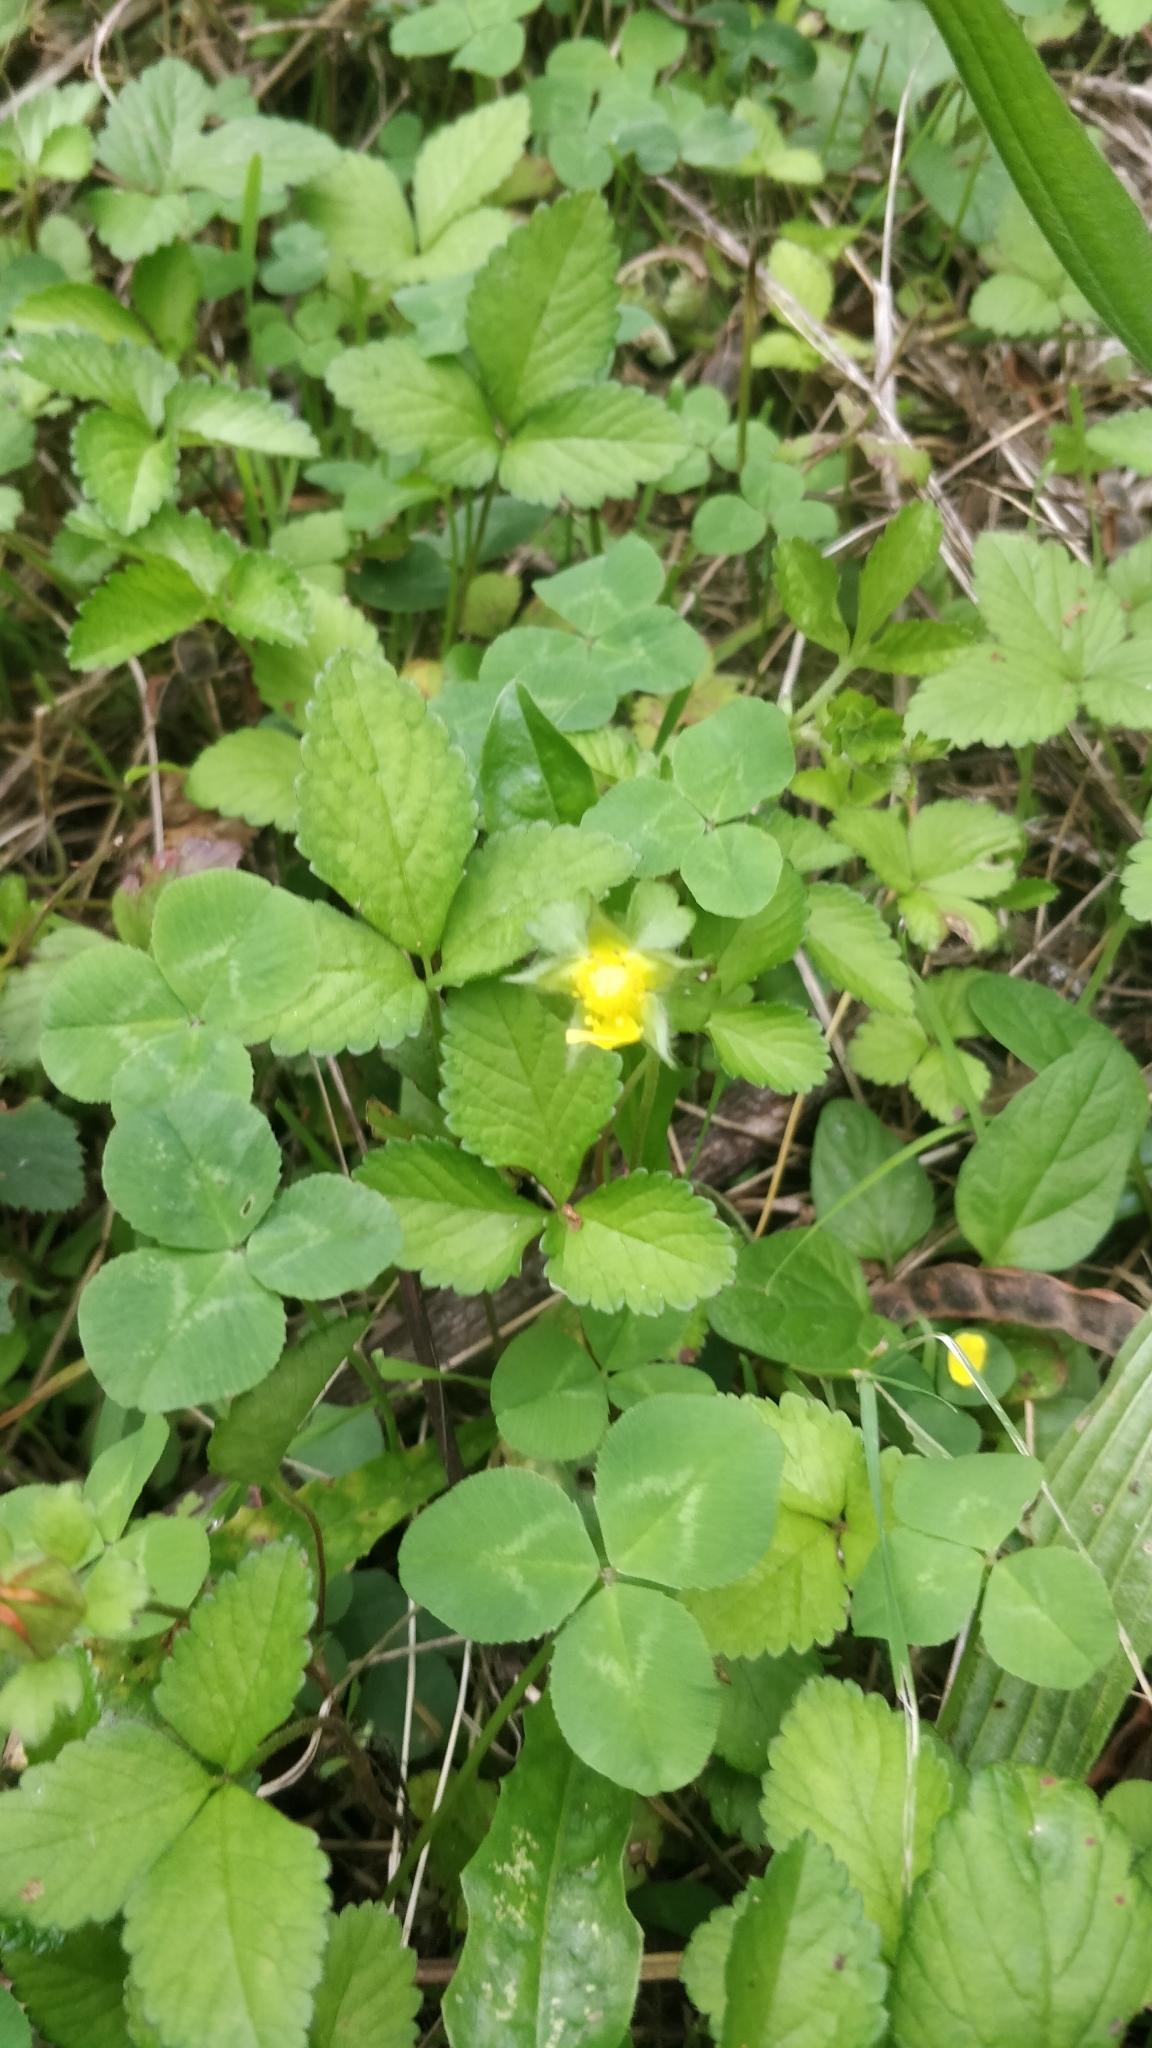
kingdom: Plantae
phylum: Tracheophyta
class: Magnoliopsida
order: Rosales
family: Rosaceae
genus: Potentilla
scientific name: Potentilla indica
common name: Yellow-flowered strawberry
